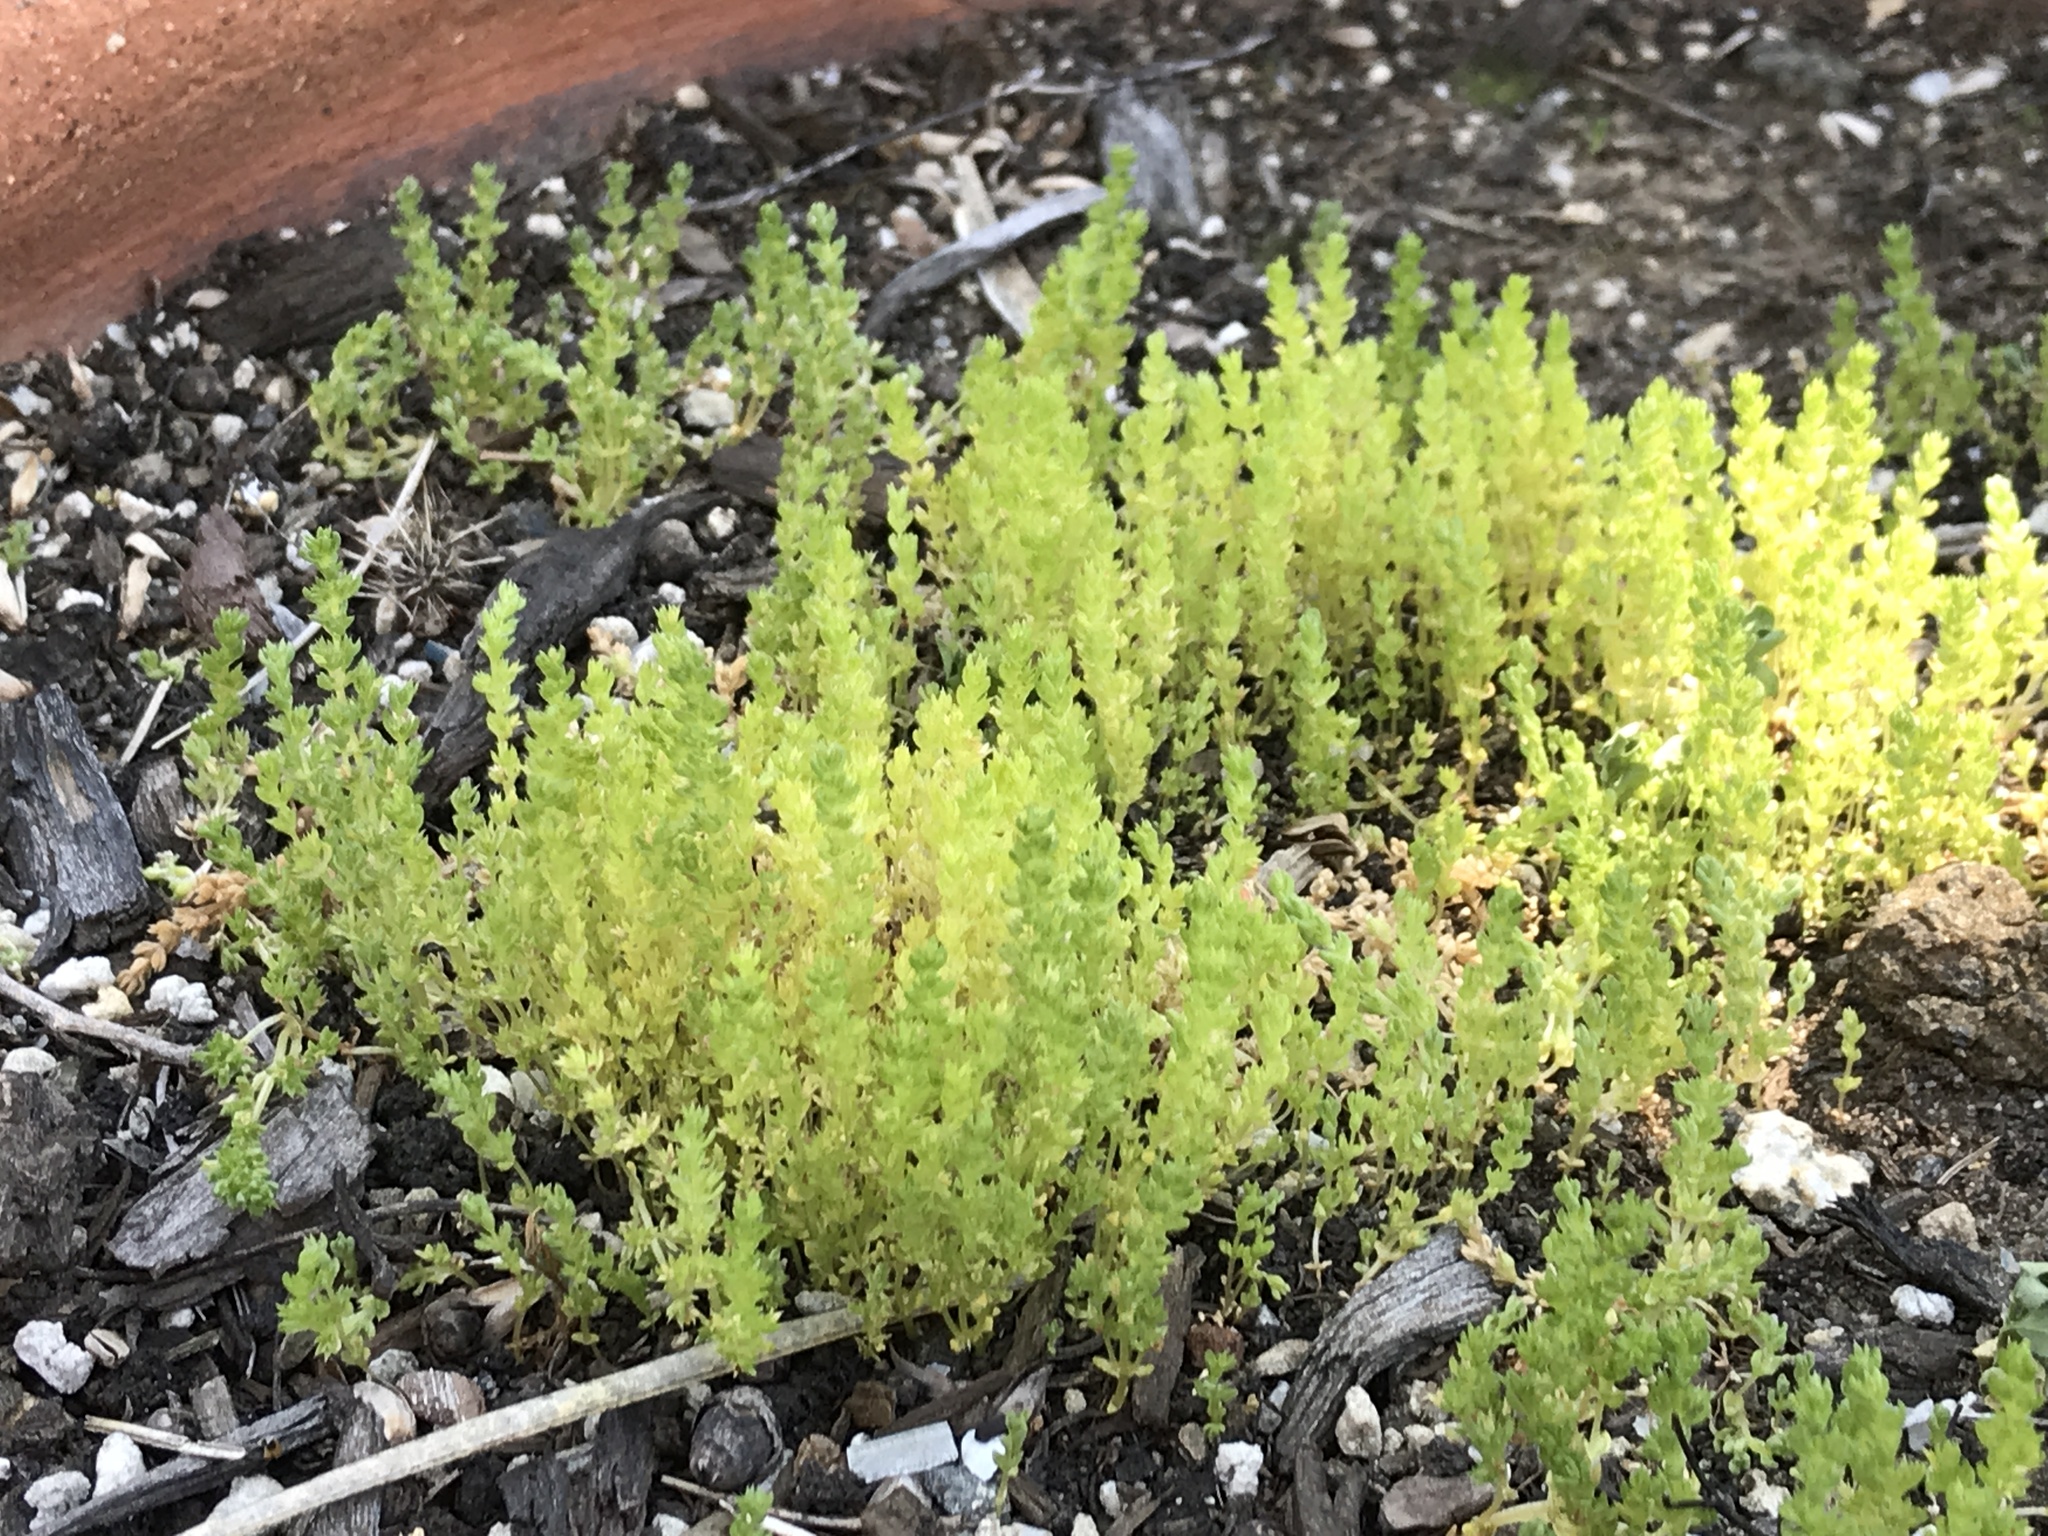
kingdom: Plantae
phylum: Tracheophyta
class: Magnoliopsida
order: Saxifragales
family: Crassulaceae
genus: Crassula
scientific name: Crassula tillaea
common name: Mossy stonecrop
